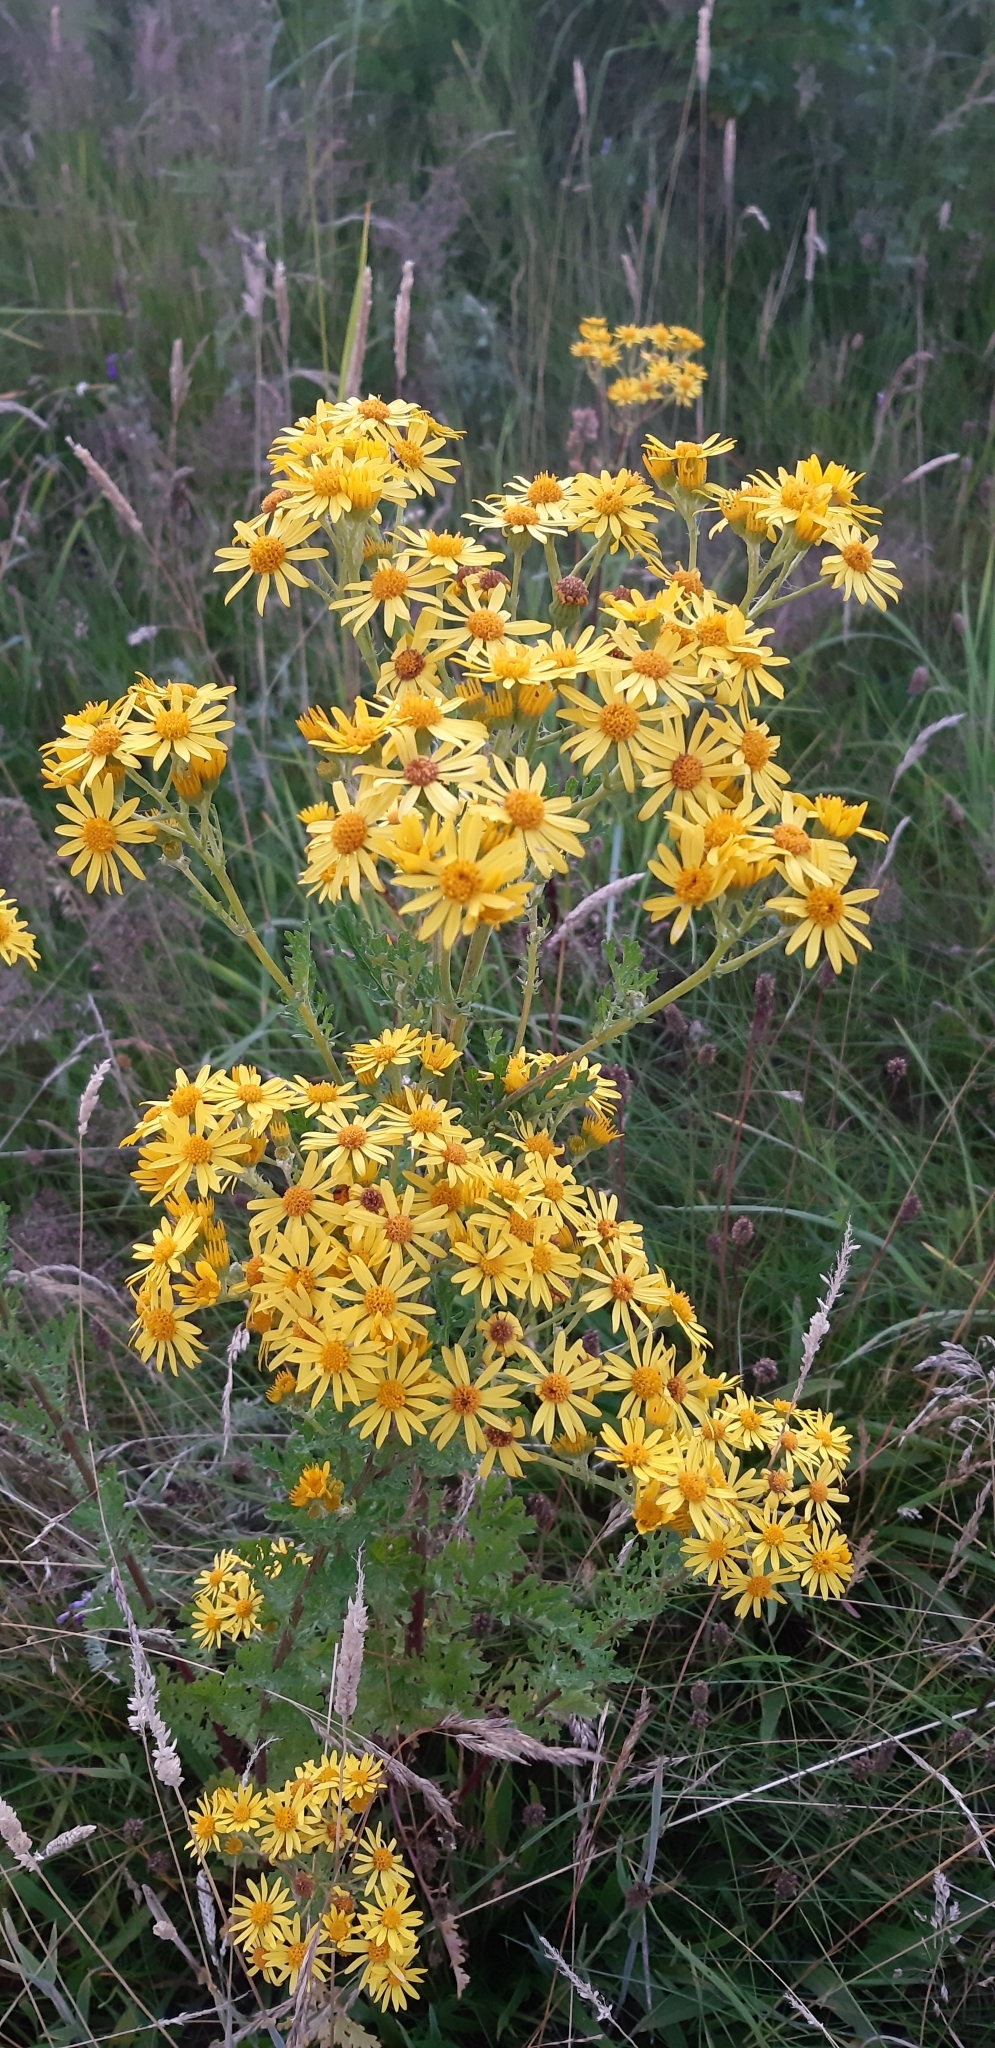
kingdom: Plantae
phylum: Tracheophyta
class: Magnoliopsida
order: Asterales
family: Asteraceae
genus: Jacobaea
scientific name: Jacobaea vulgaris
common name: Stinking willie
